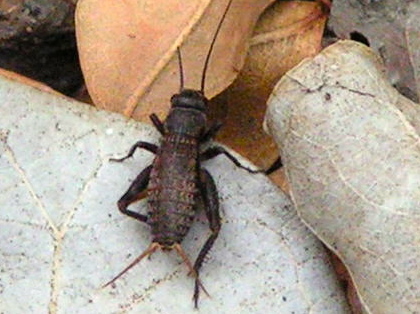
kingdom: Animalia
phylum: Arthropoda
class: Insecta
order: Orthoptera
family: Gryllidae
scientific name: Gryllidae
